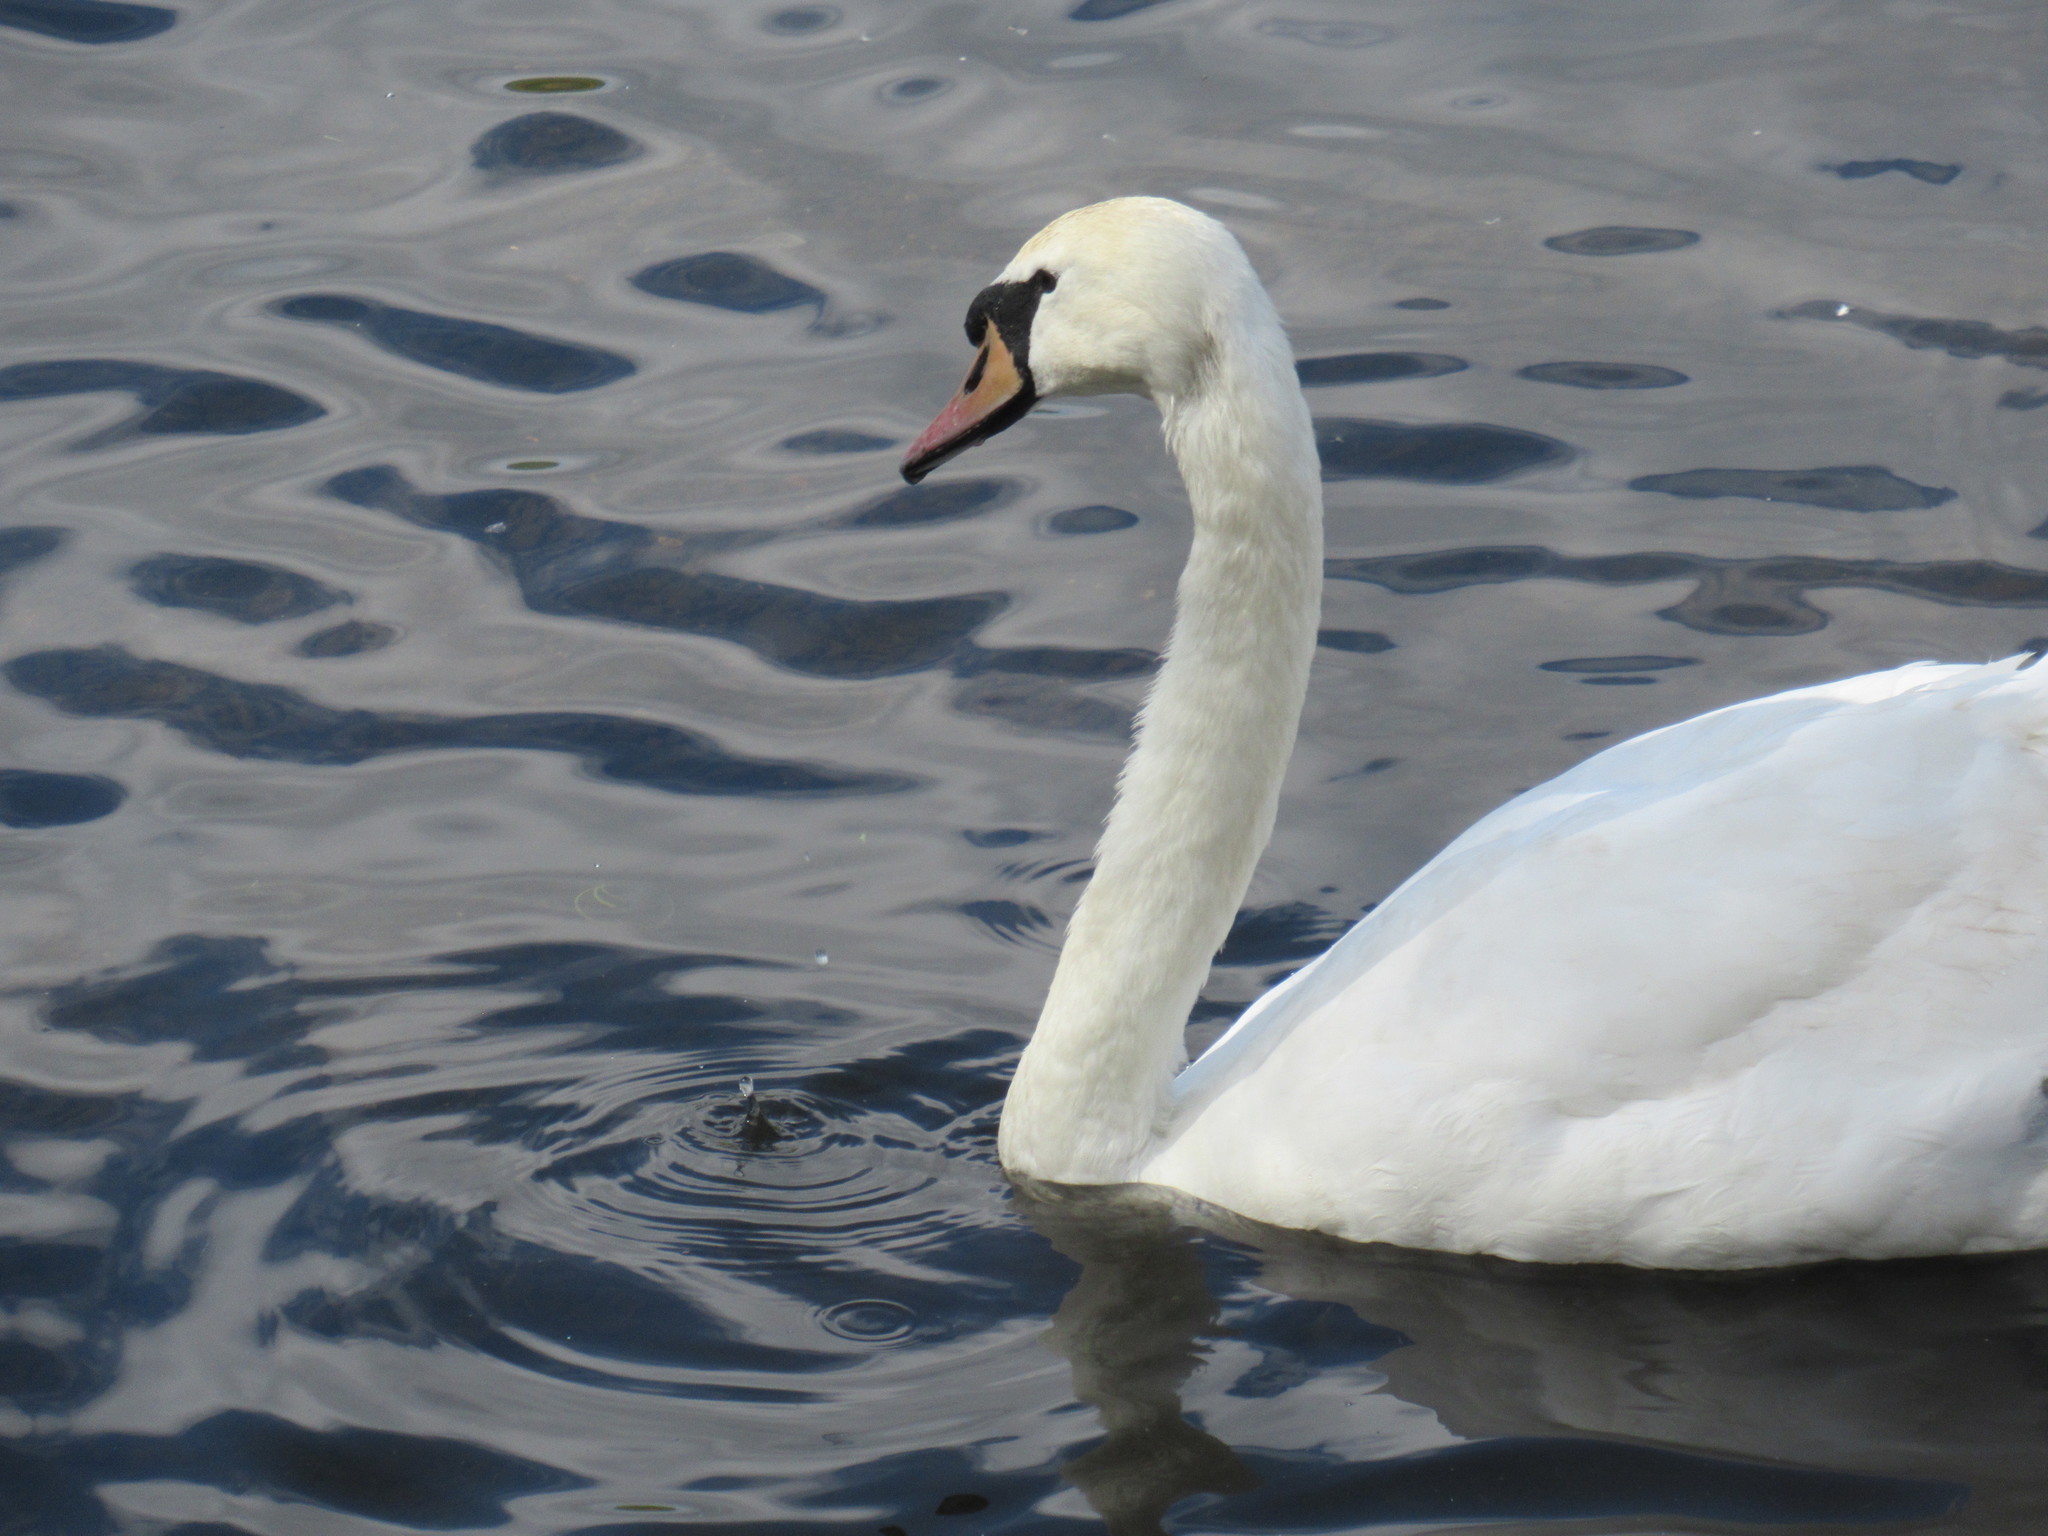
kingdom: Animalia
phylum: Chordata
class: Aves
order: Anseriformes
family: Anatidae
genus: Cygnus
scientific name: Cygnus olor
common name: Mute swan
